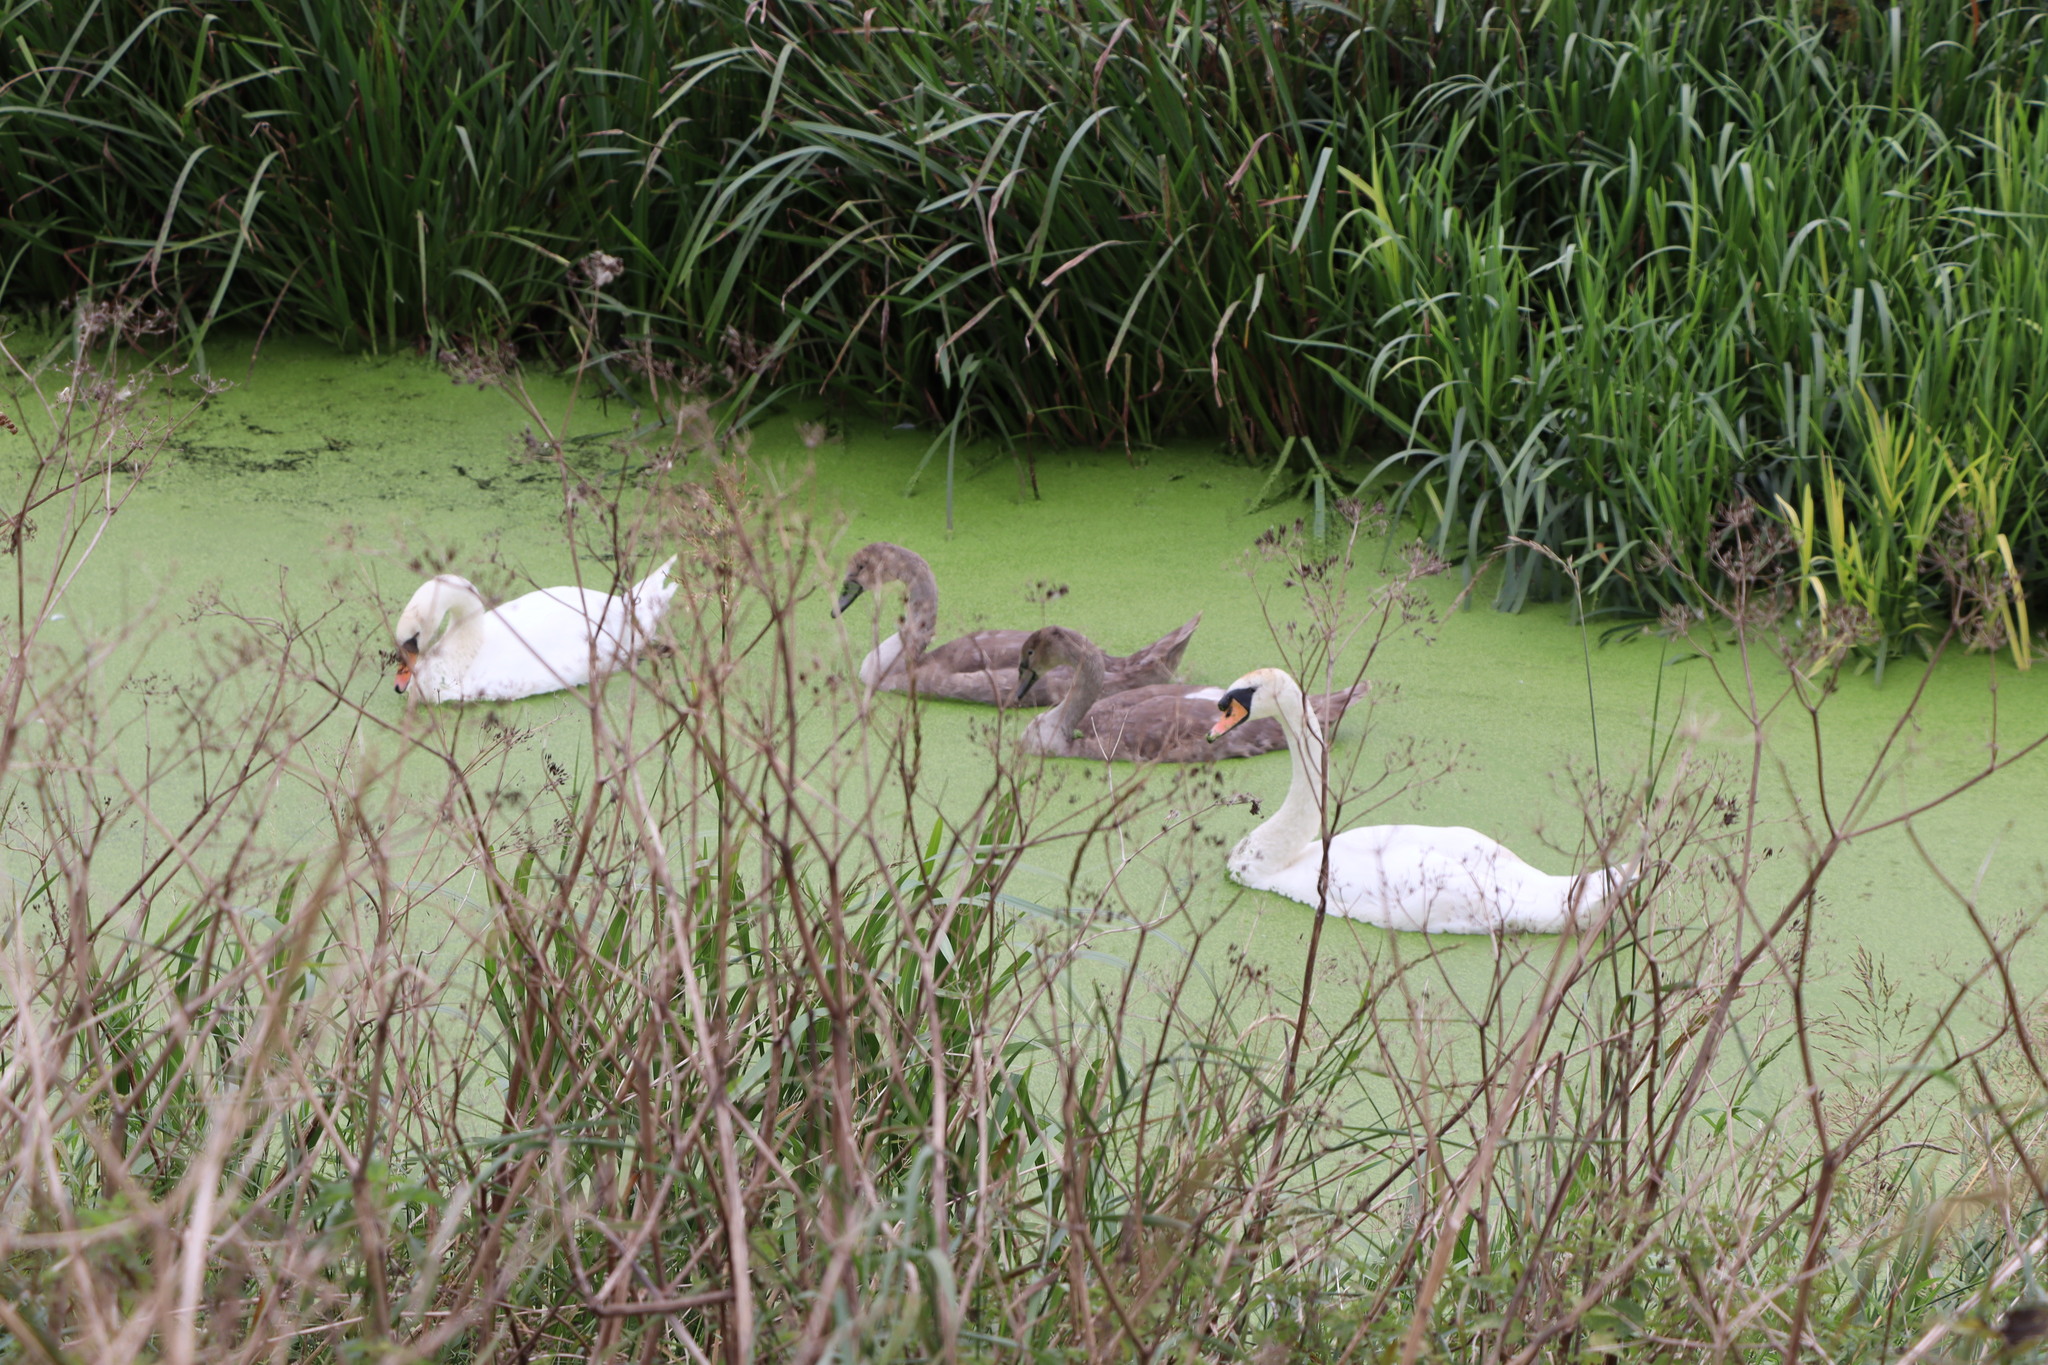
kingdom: Animalia
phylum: Chordata
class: Aves
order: Anseriformes
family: Anatidae
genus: Cygnus
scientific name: Cygnus olor
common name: Mute swan
